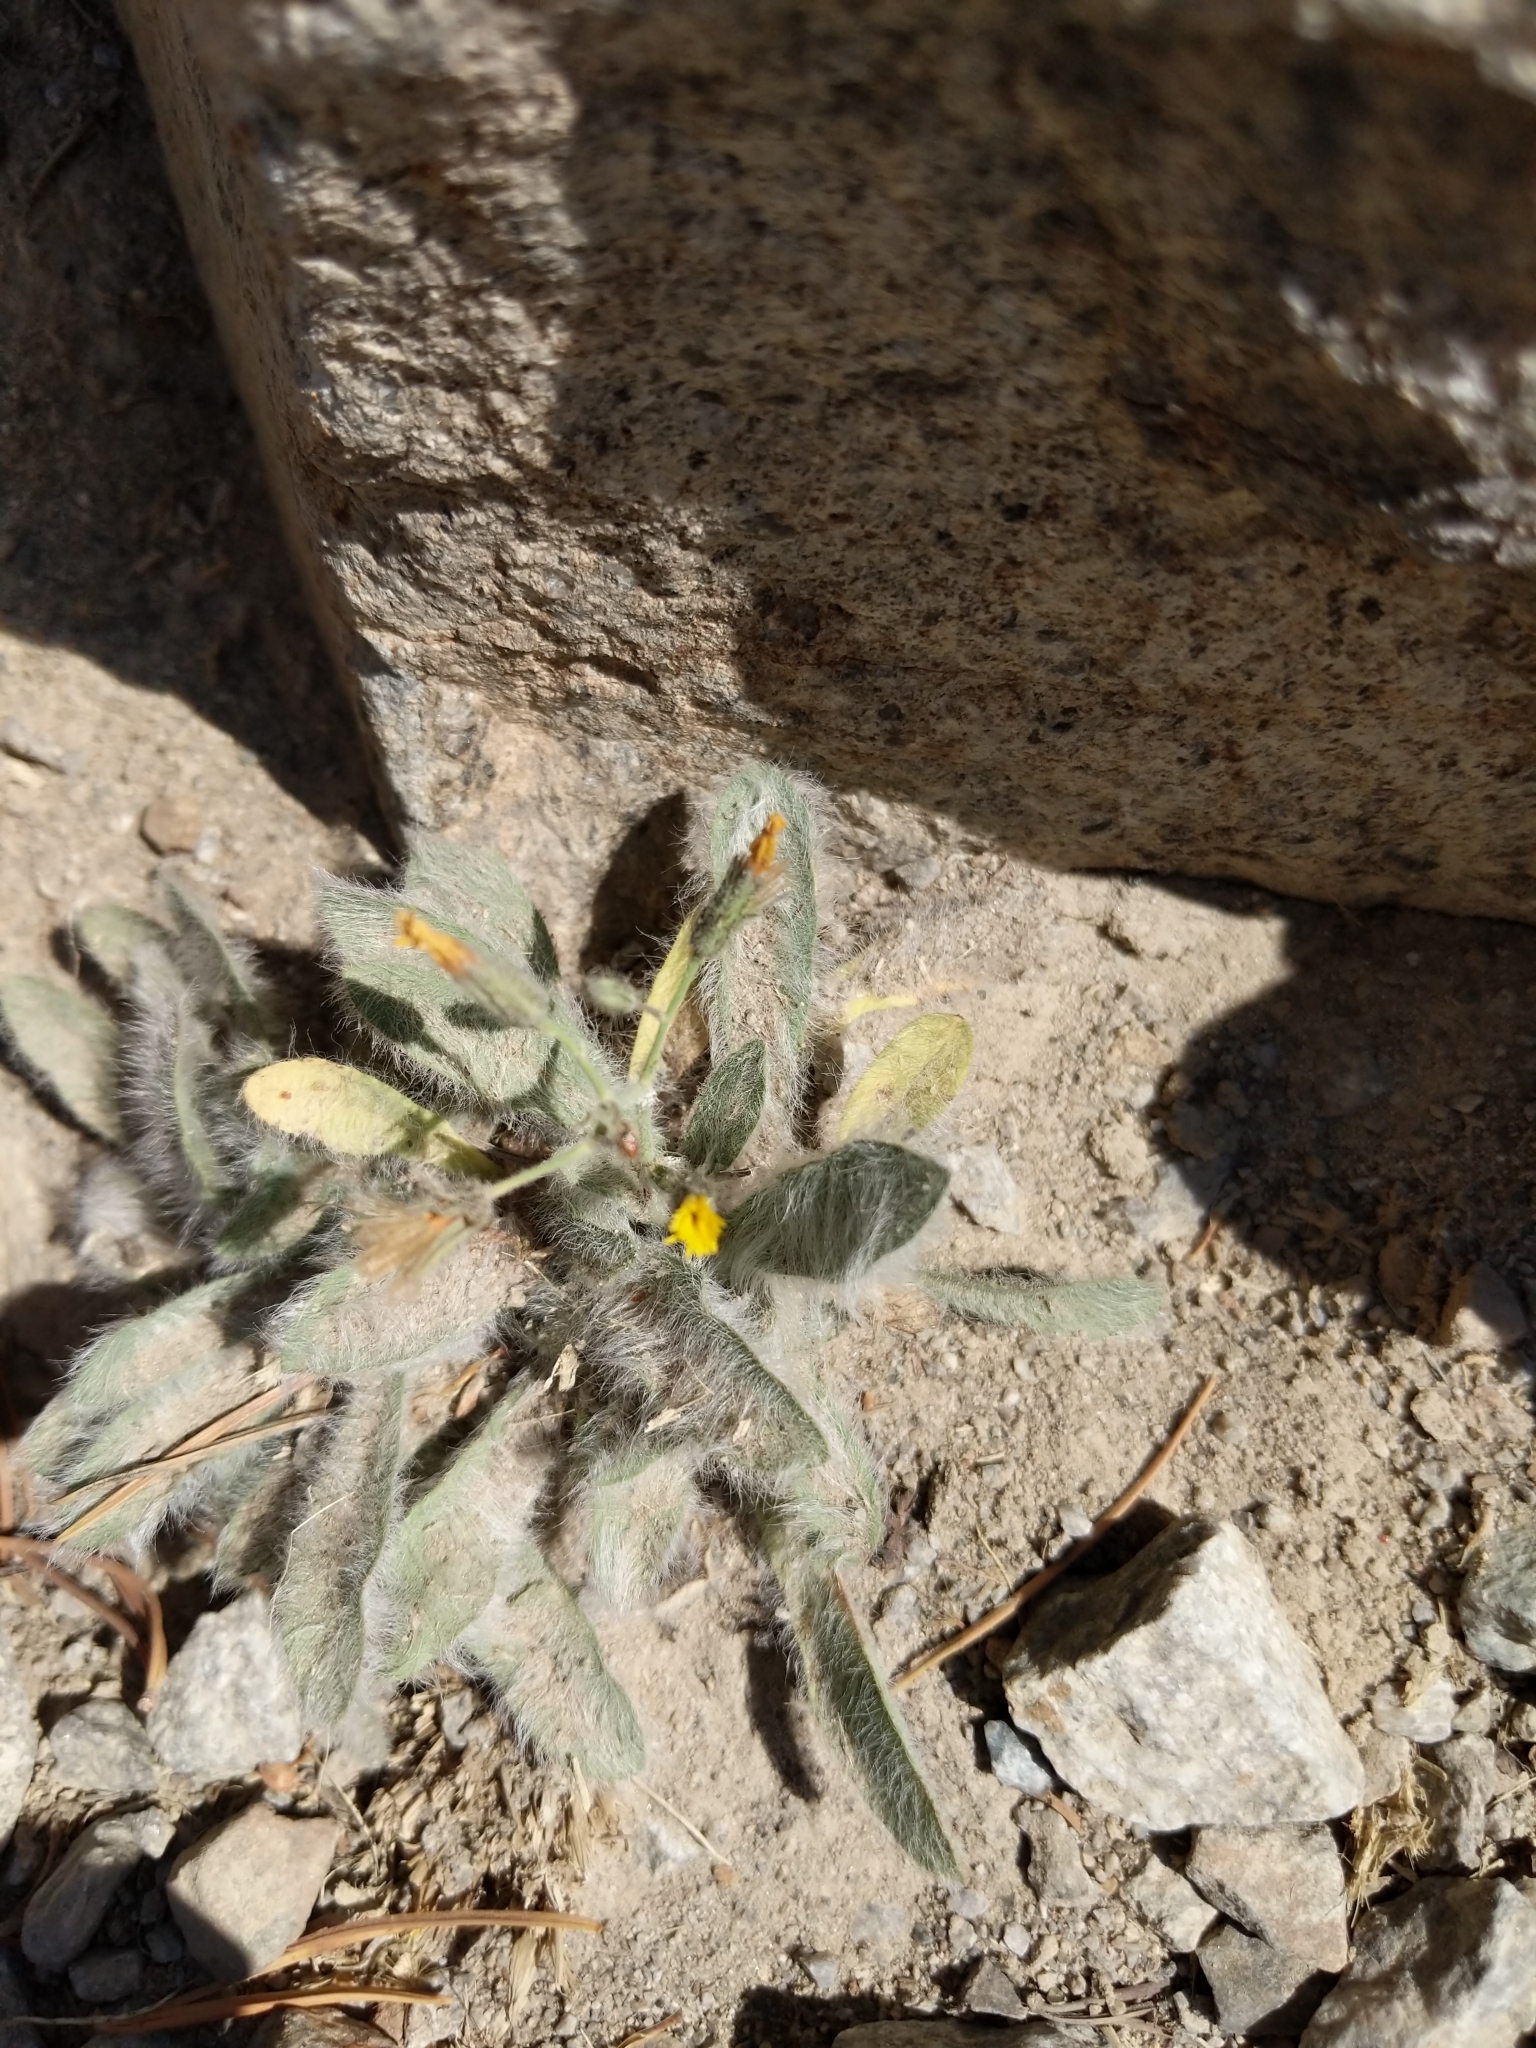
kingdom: Plantae
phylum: Tracheophyta
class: Magnoliopsida
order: Asterales
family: Asteraceae
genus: Hieracium
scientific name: Hieracium horridum
